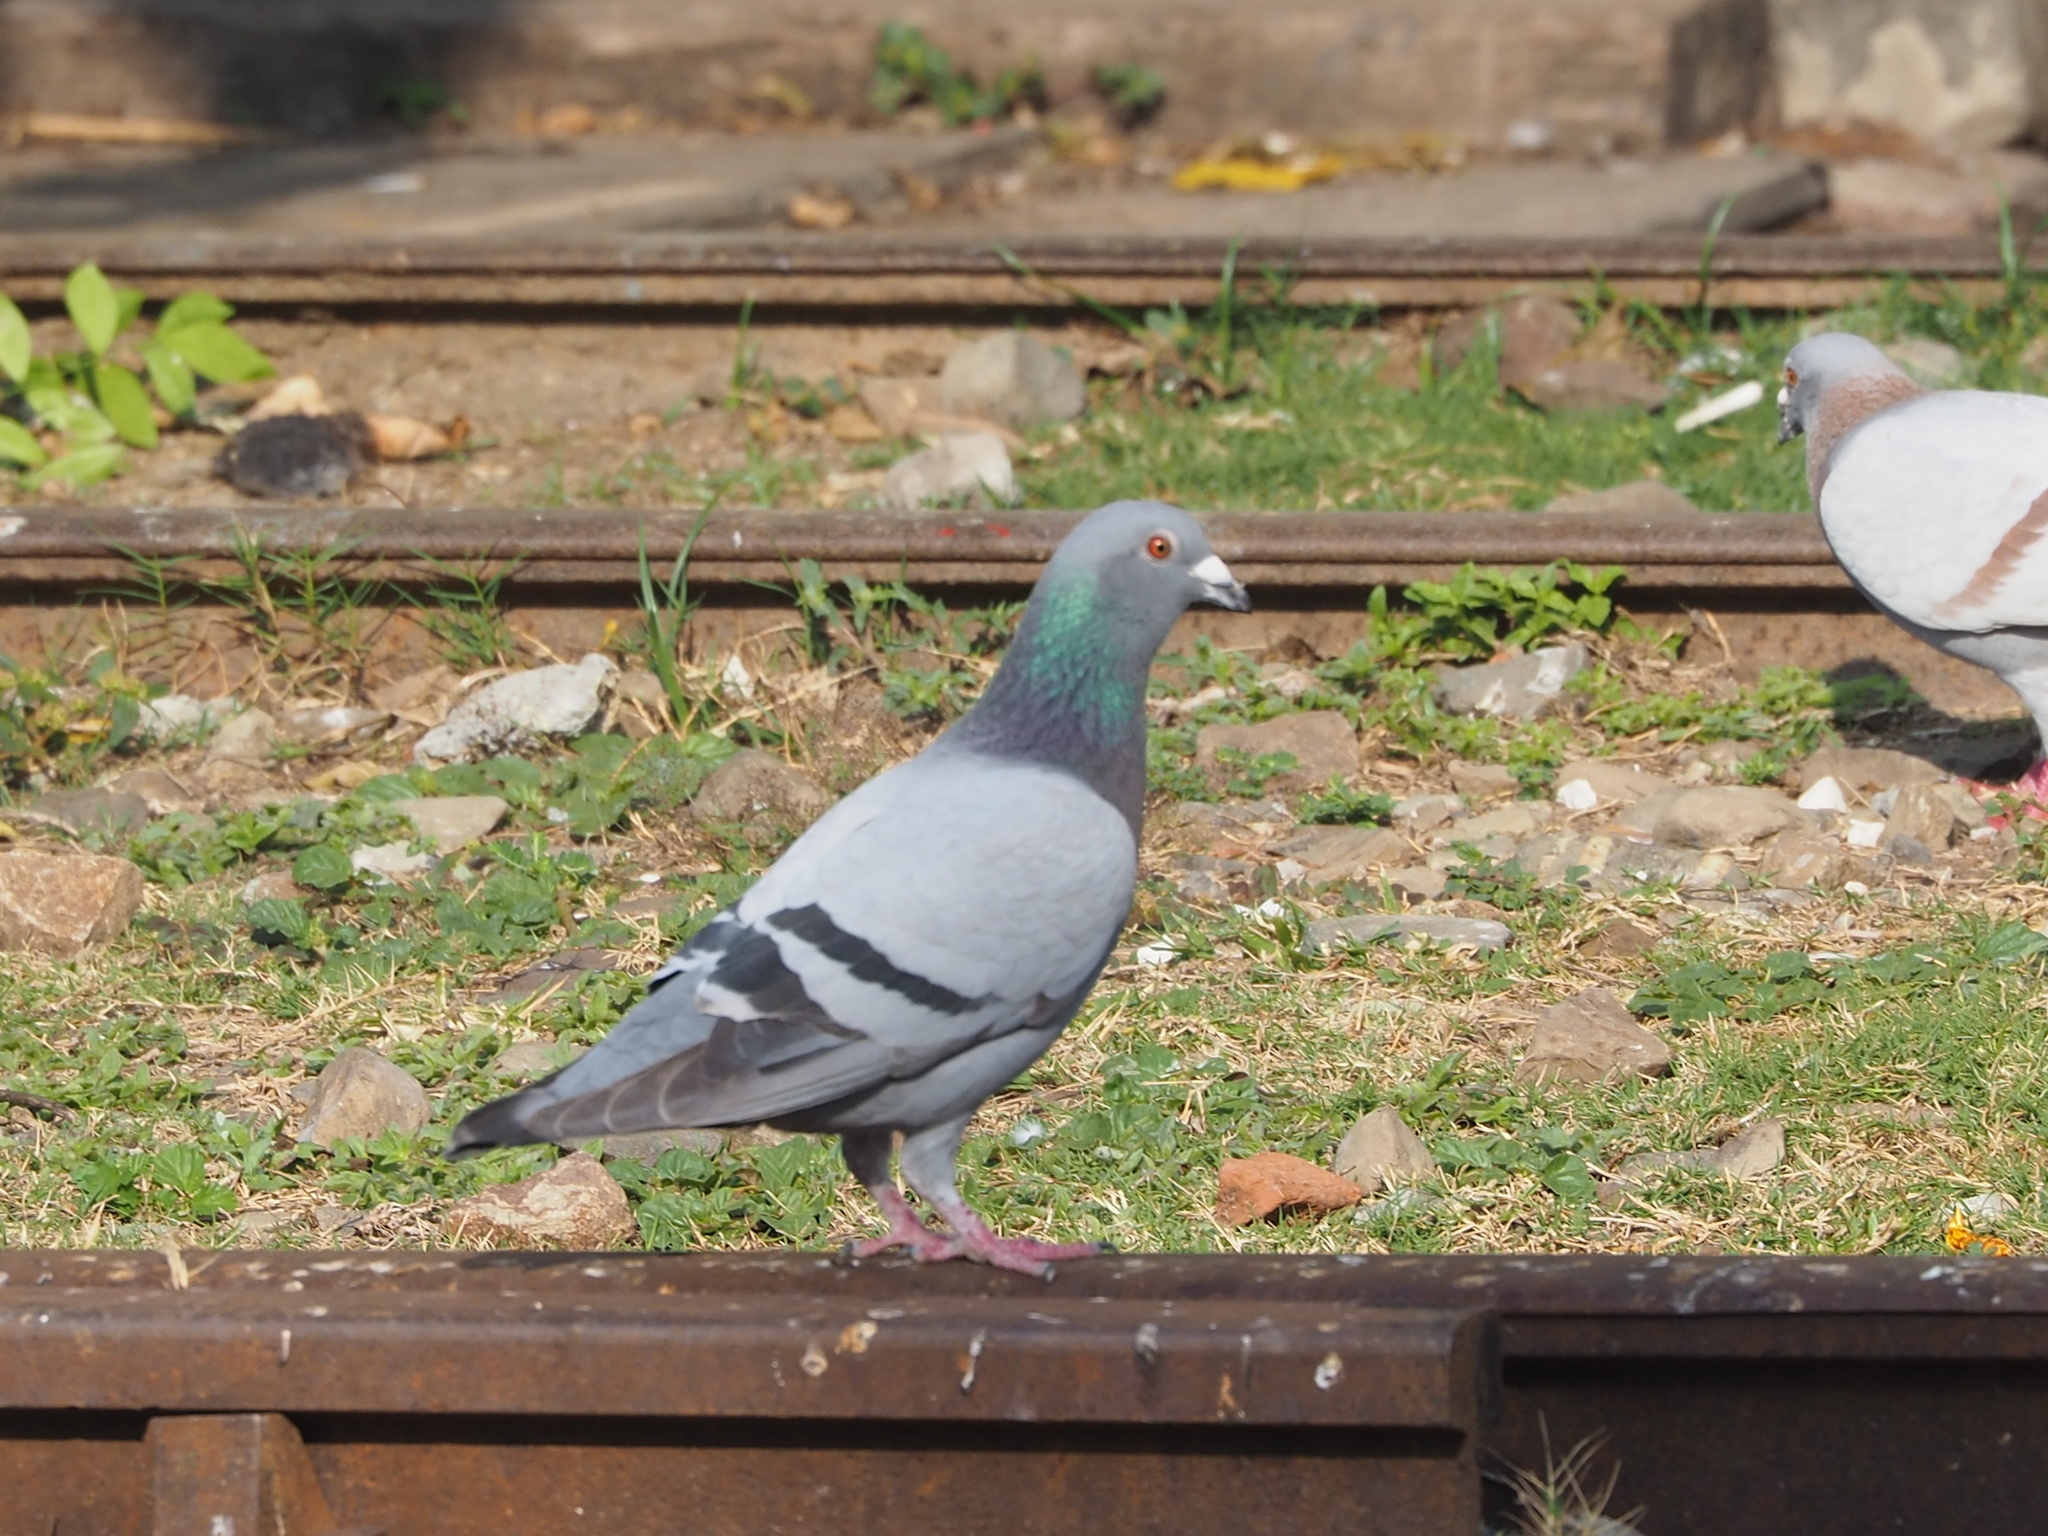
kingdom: Animalia
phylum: Chordata
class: Aves
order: Columbiformes
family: Columbidae
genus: Columba
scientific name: Columba livia
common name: Rock pigeon
